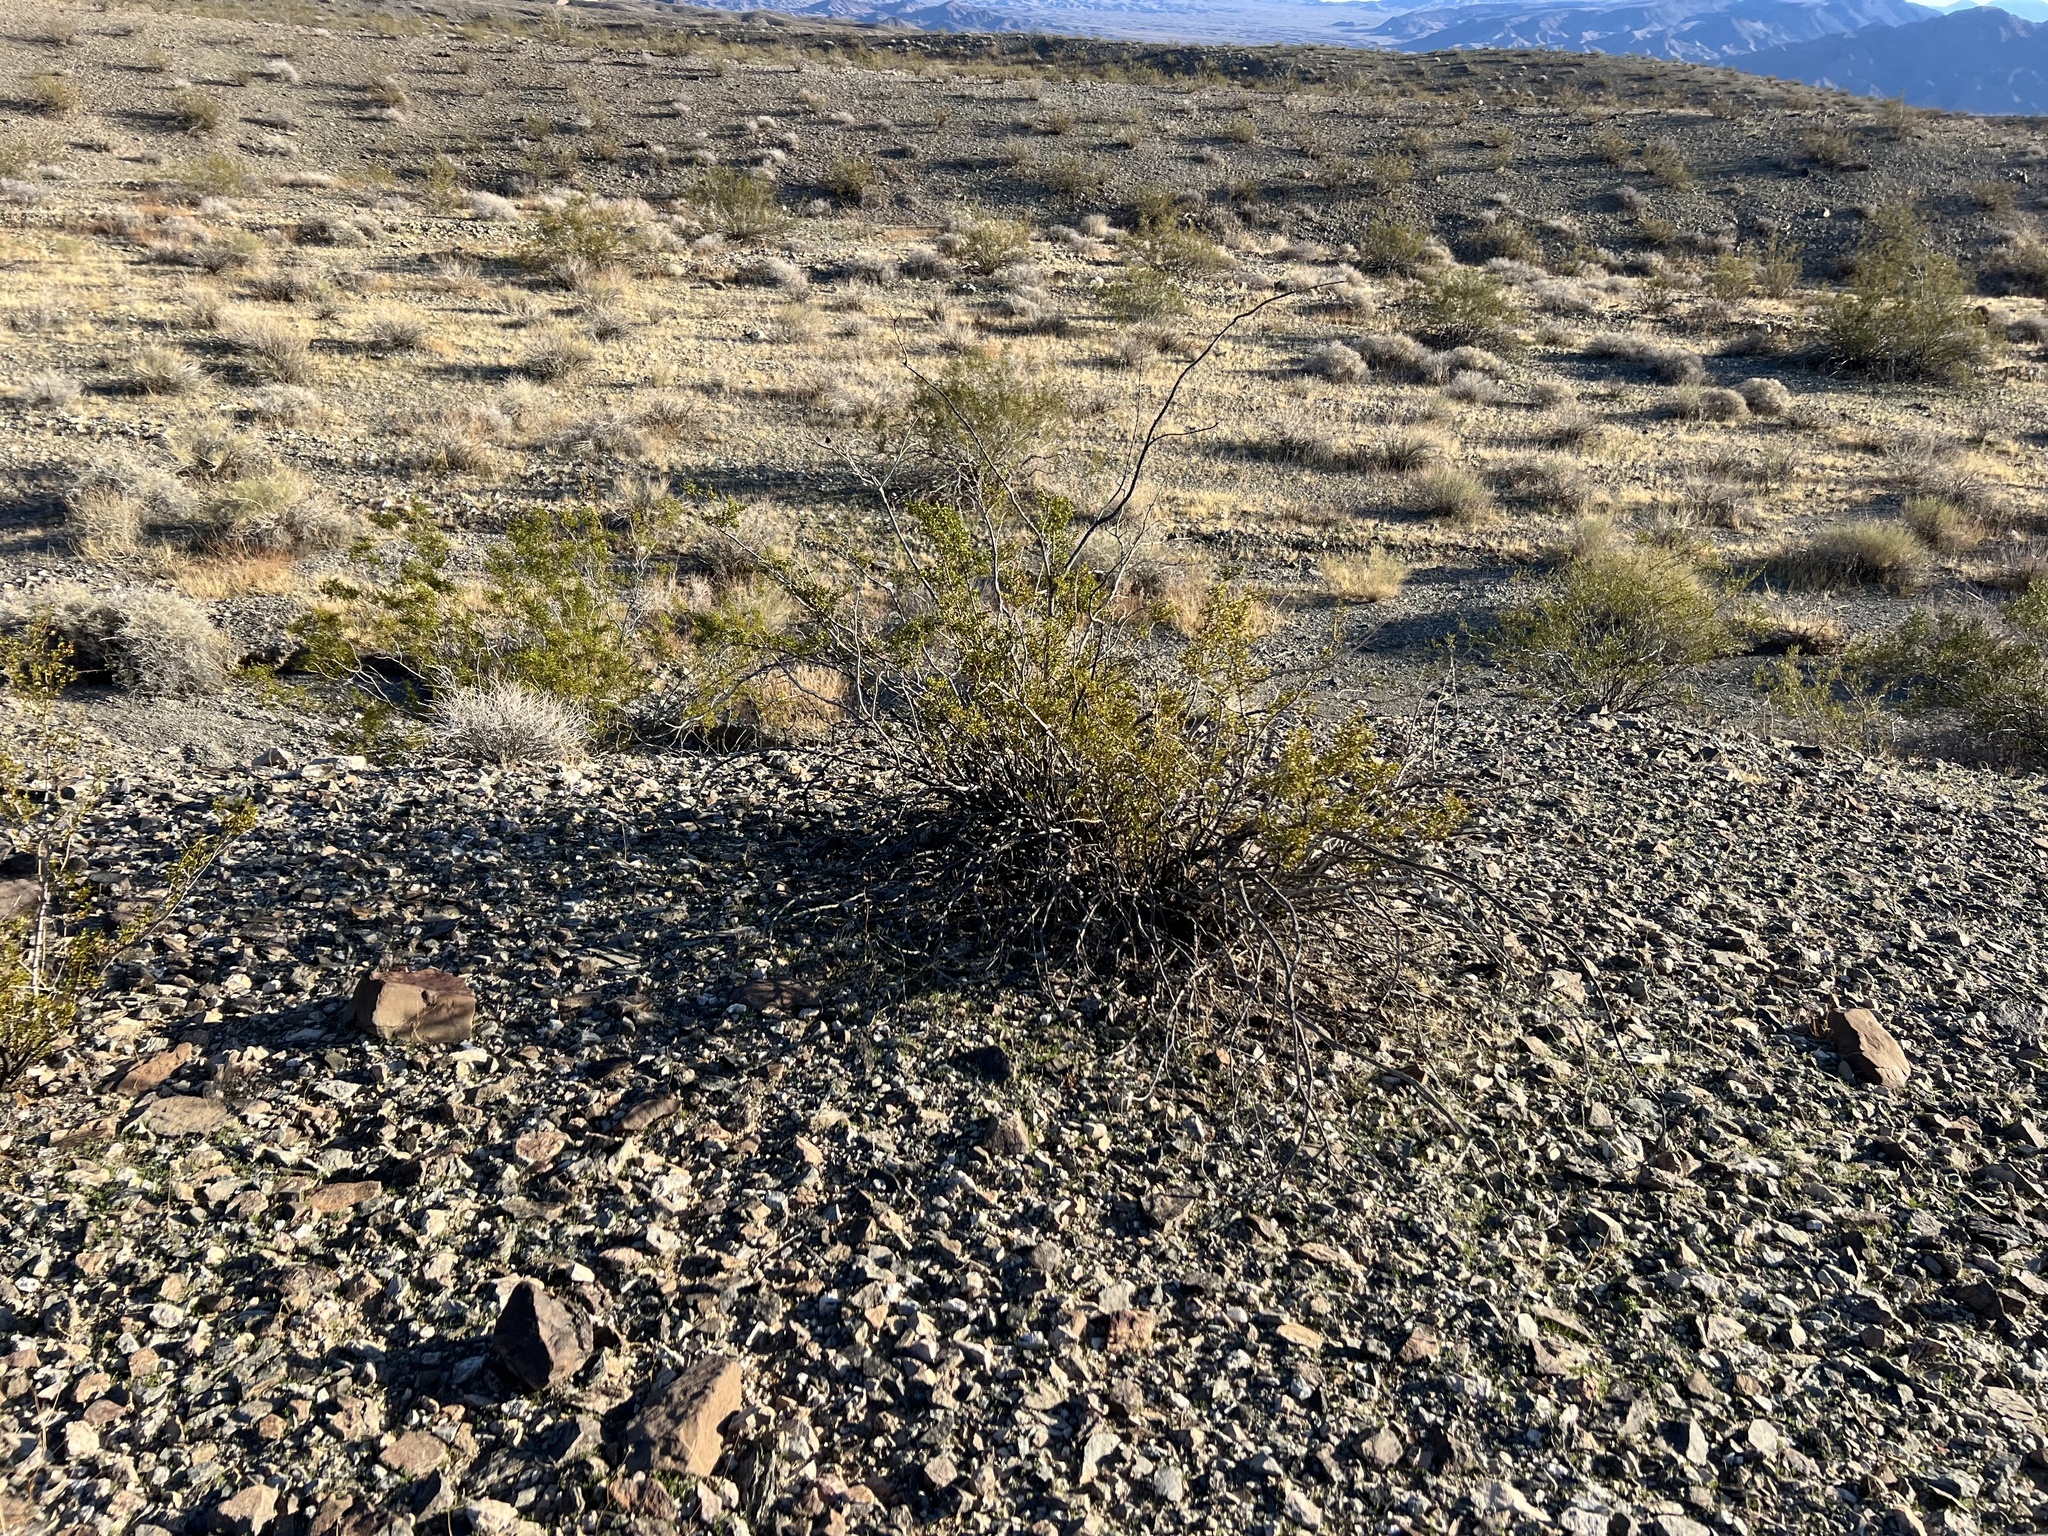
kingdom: Plantae
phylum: Tracheophyta
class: Magnoliopsida
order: Zygophyllales
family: Zygophyllaceae
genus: Larrea
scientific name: Larrea tridentata
